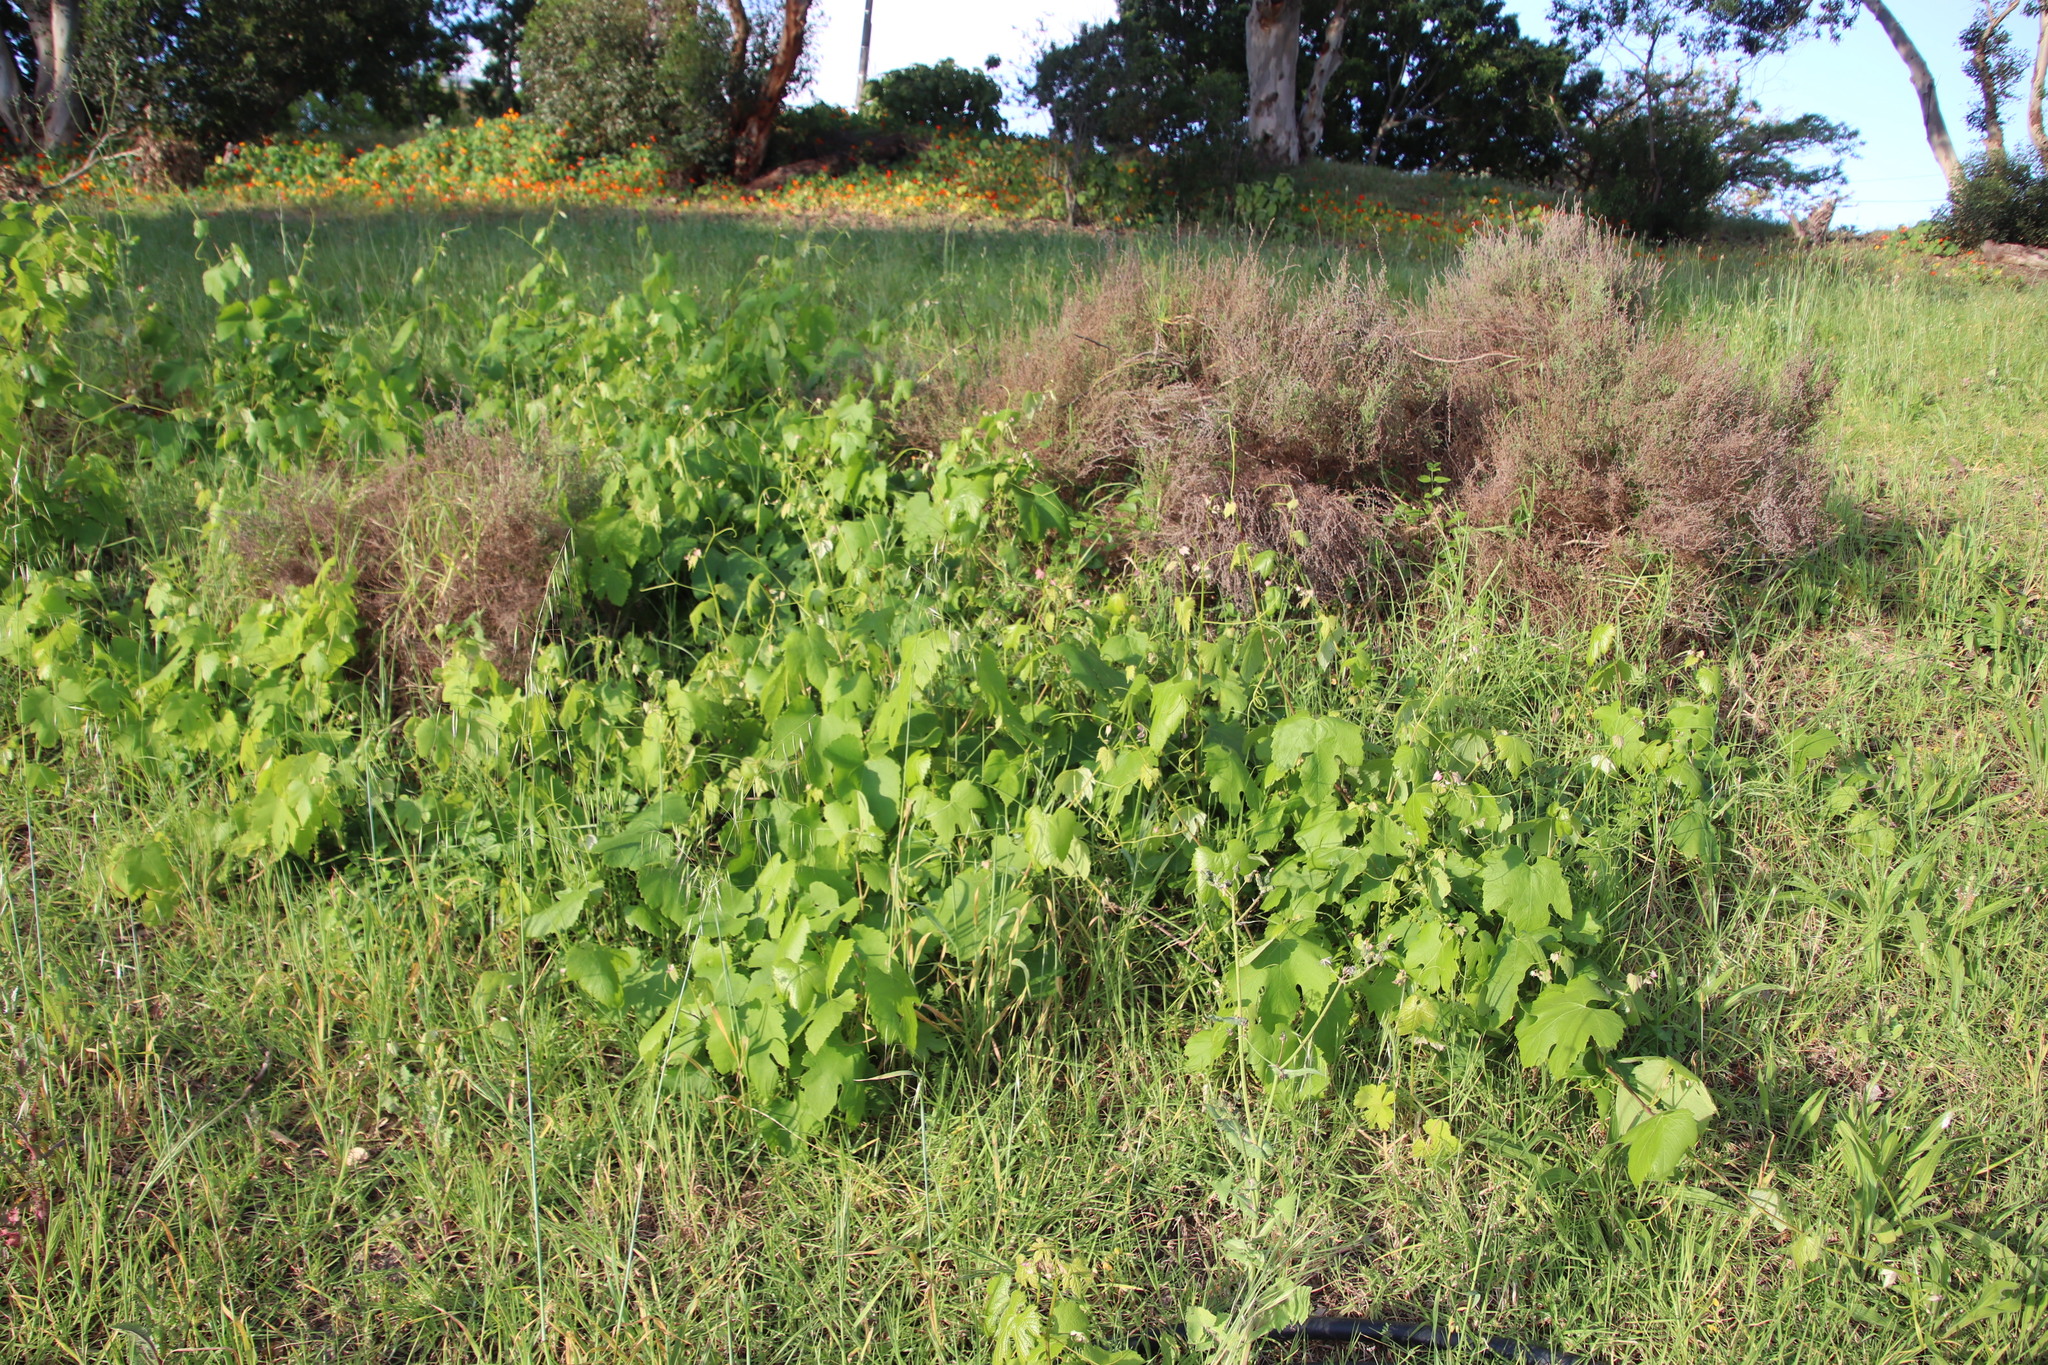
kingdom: Plantae
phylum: Tracheophyta
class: Magnoliopsida
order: Vitales
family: Vitaceae
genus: Vitis
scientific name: Vitis vinifera
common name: Grape-vine
